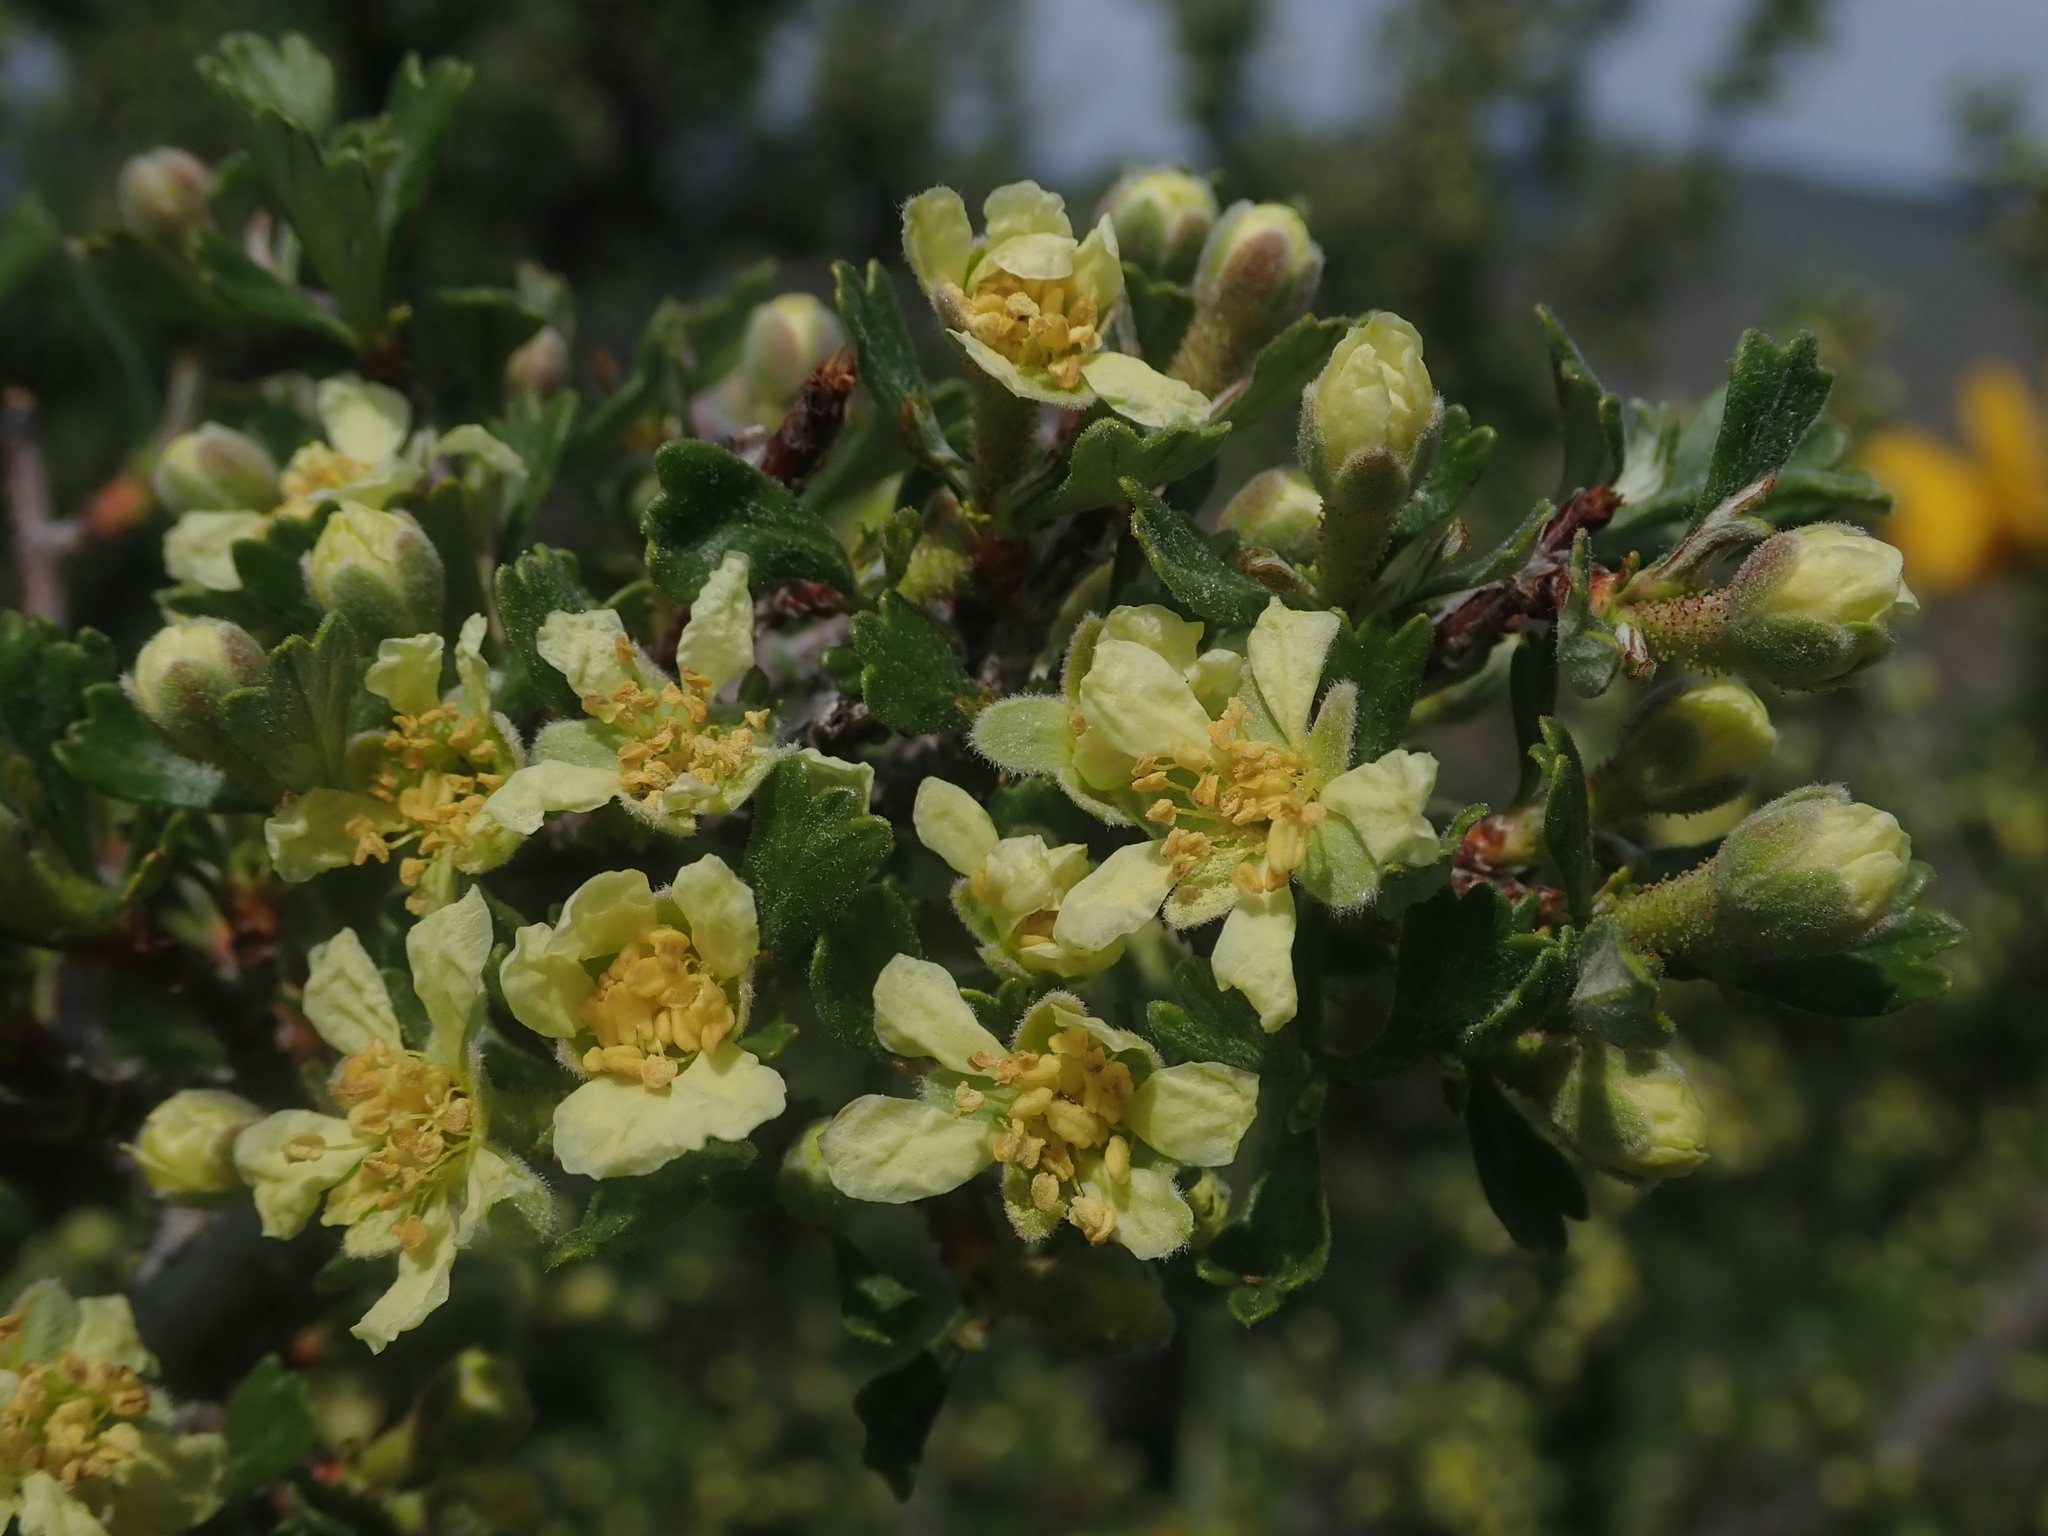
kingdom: Plantae
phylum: Tracheophyta
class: Magnoliopsida
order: Rosales
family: Rosaceae
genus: Purshia
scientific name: Purshia tridentata
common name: Antelope bitterbrush
